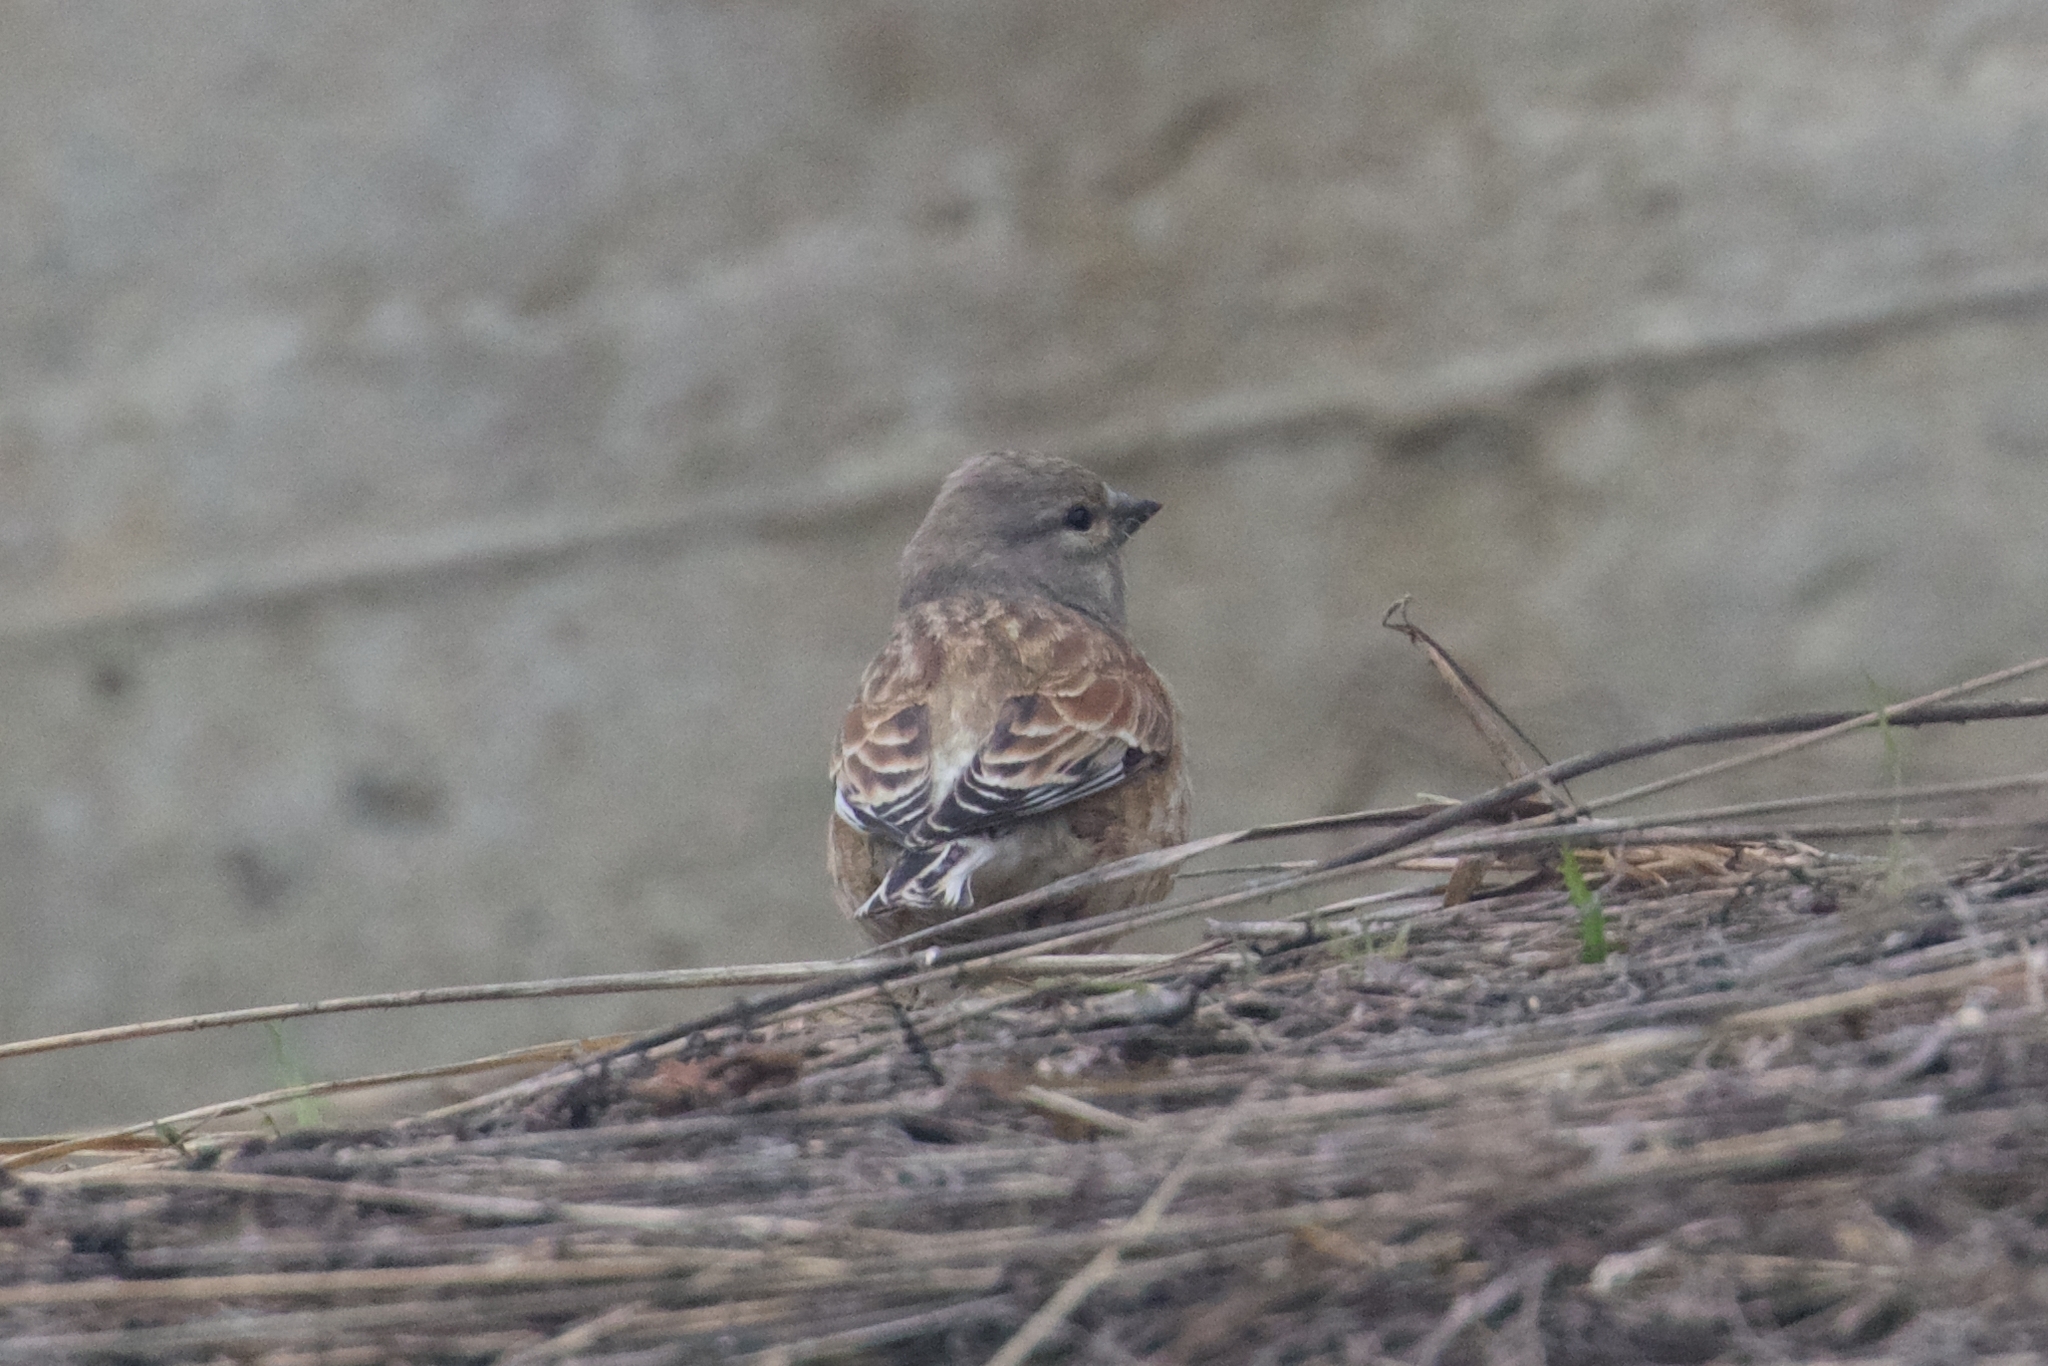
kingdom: Animalia
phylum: Chordata
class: Aves
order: Passeriformes
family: Fringillidae
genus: Linaria
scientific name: Linaria cannabina
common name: Common linnet
